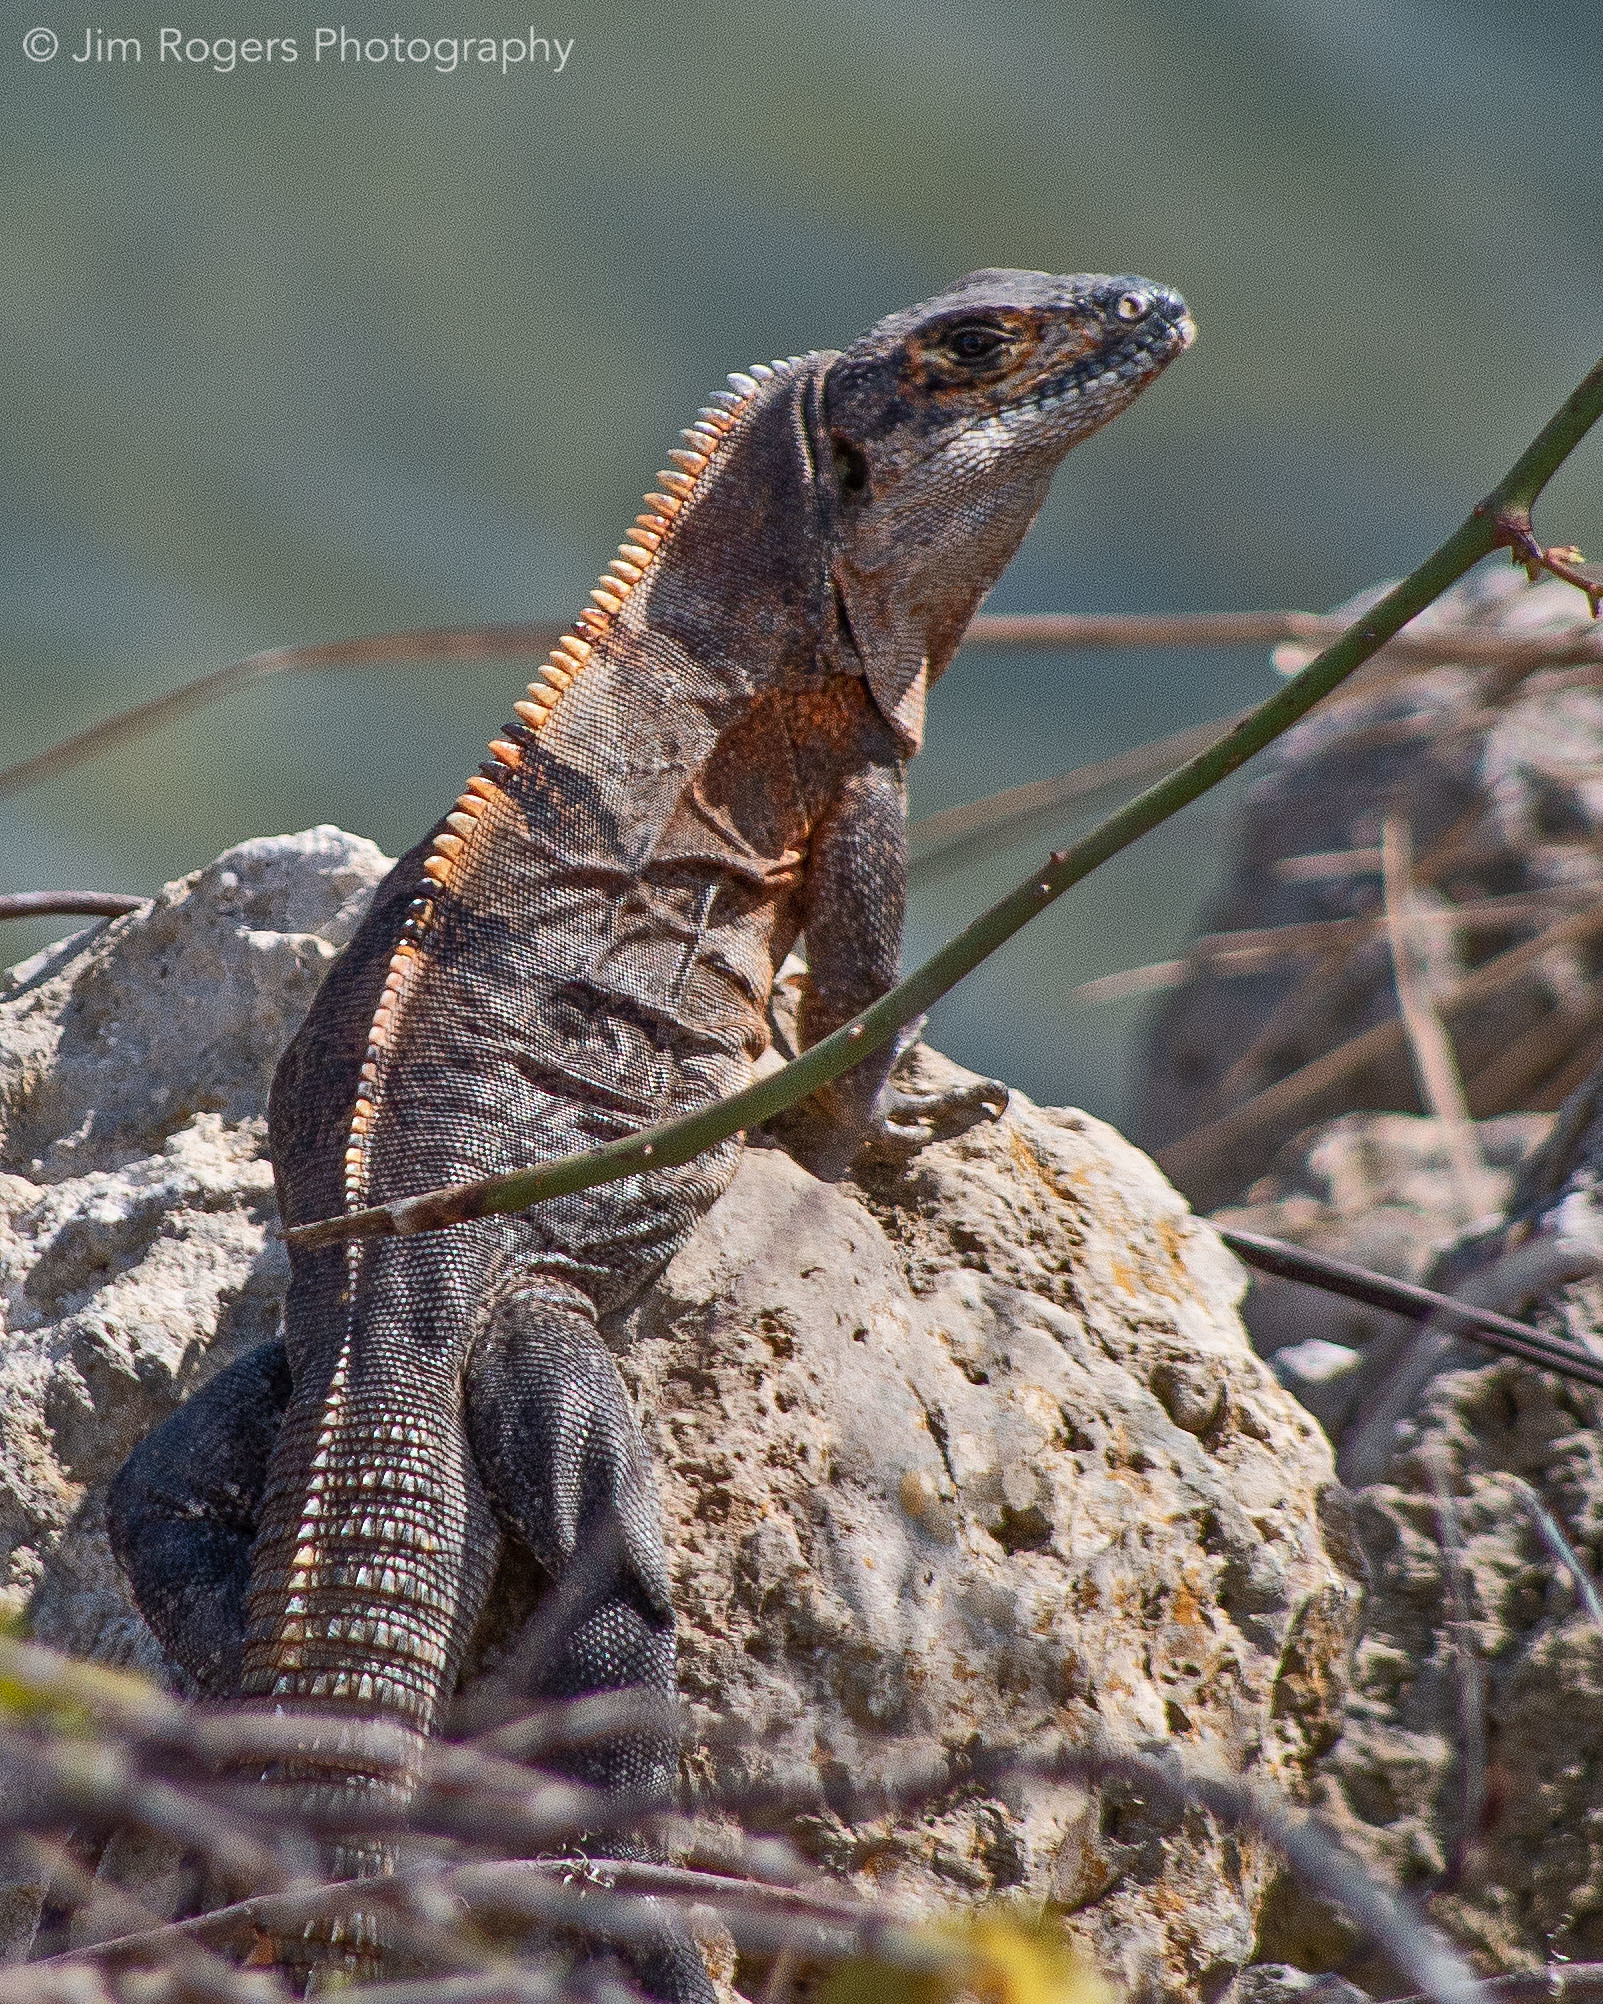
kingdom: Animalia
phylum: Chordata
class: Squamata
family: Iguanidae
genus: Ctenosaura
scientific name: Ctenosaura similis
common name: Black spiny-tailed iguana
